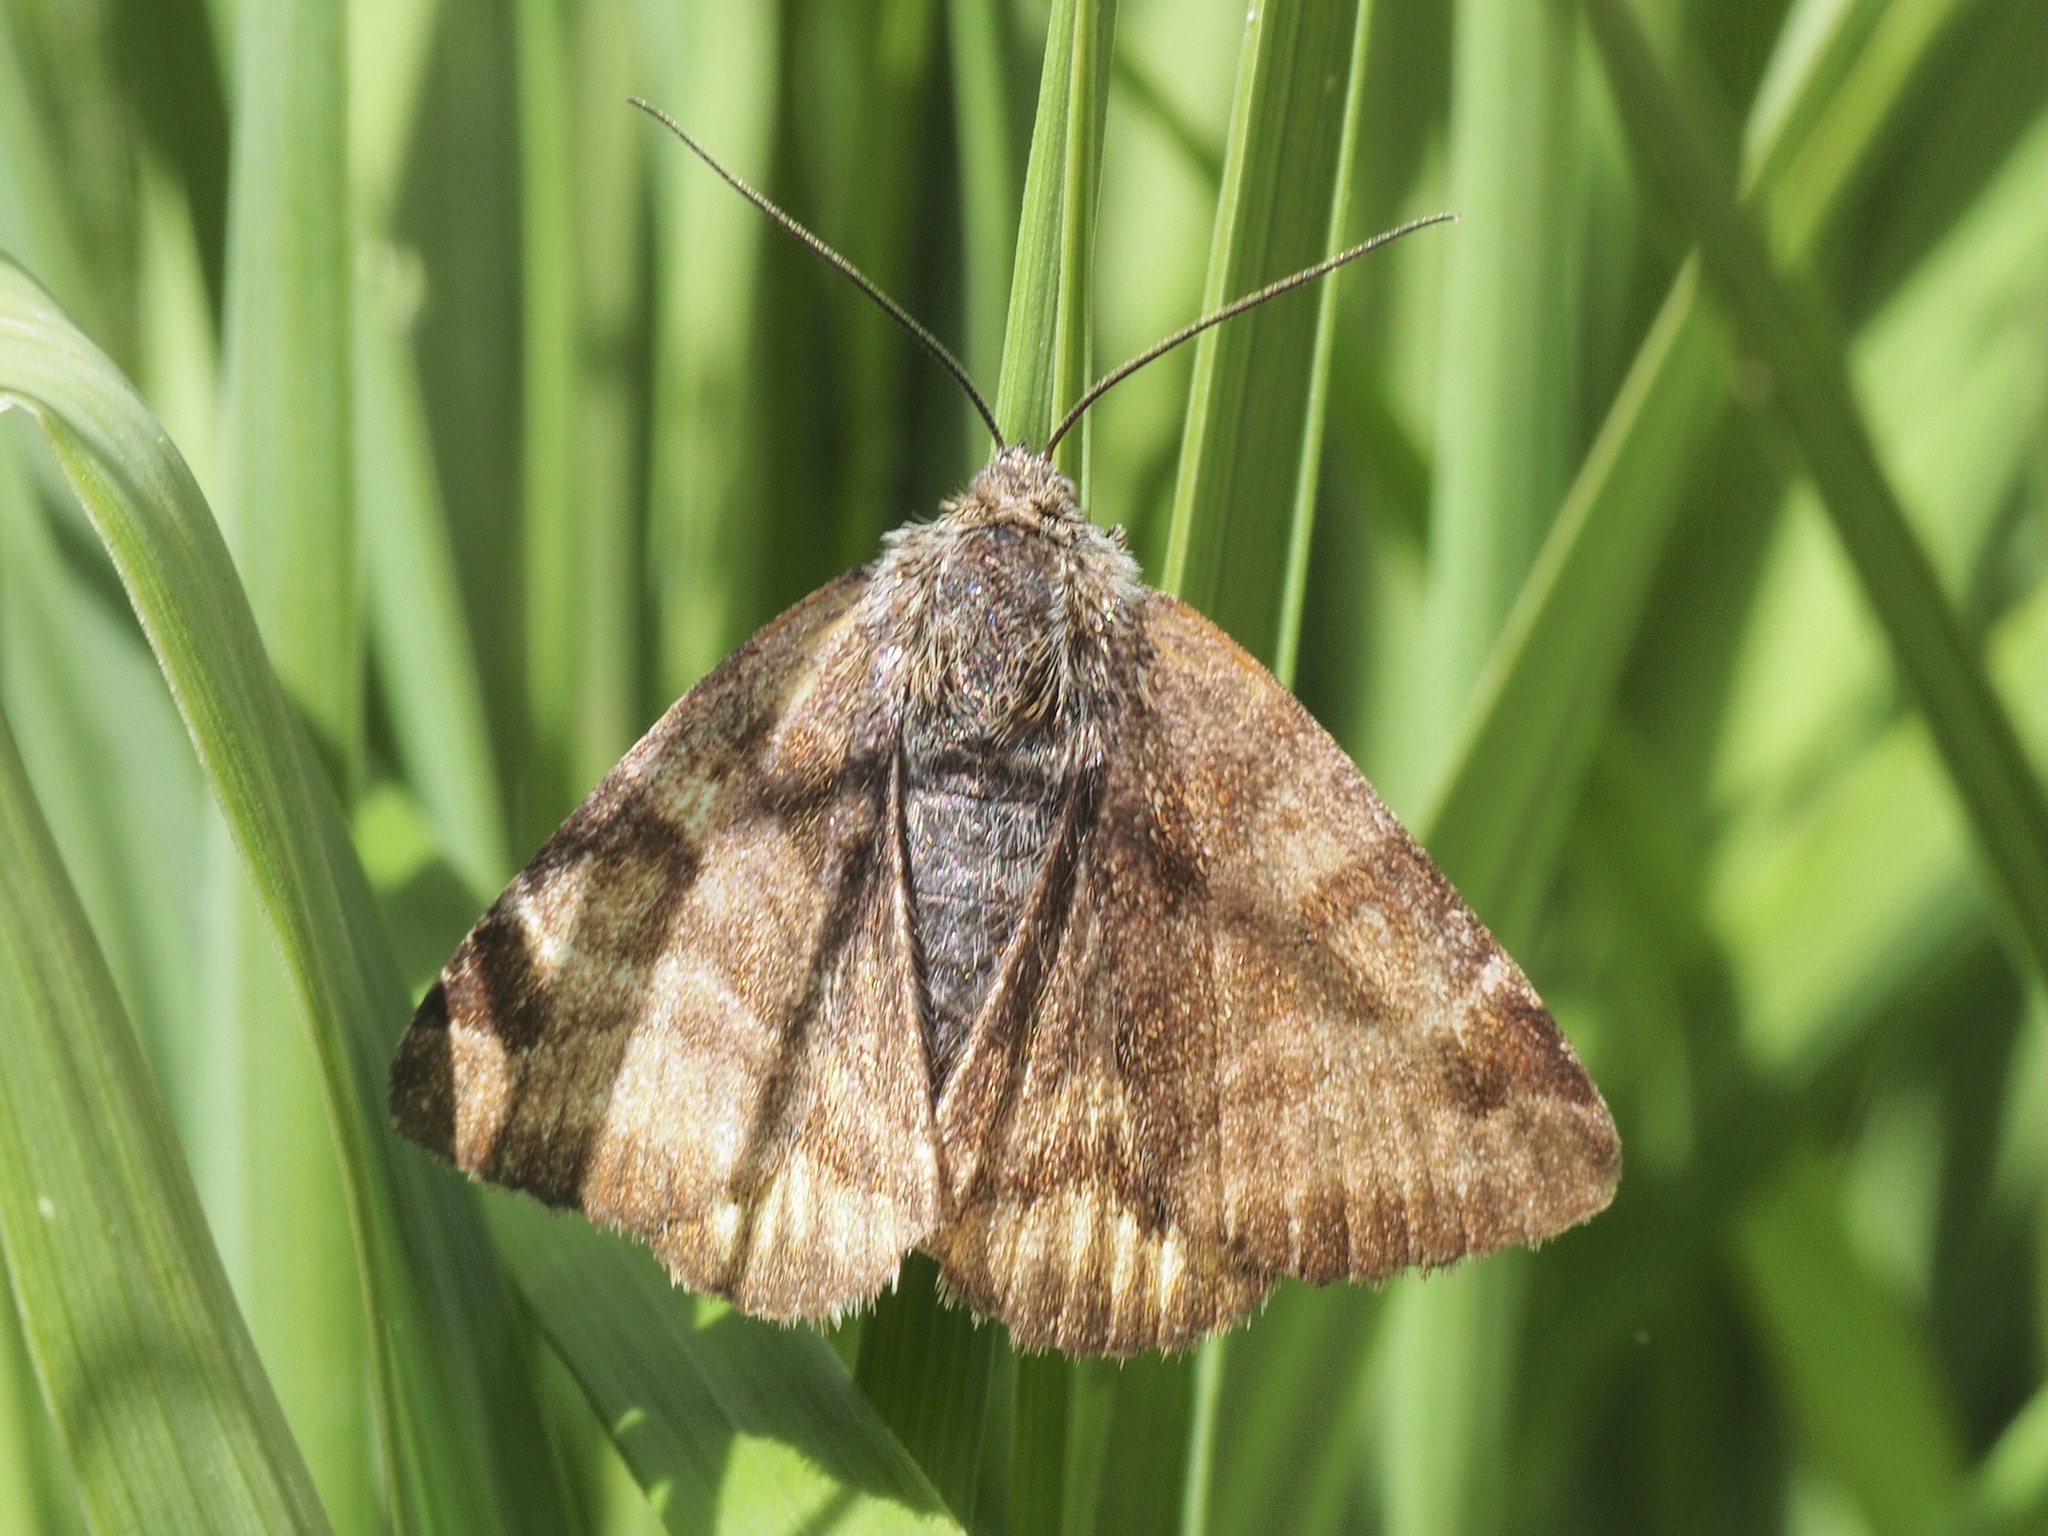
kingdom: Animalia
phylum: Arthropoda
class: Insecta
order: Lepidoptera
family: Erebidae
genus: Euclidia
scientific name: Euclidia glyphica
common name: Burnet companion
